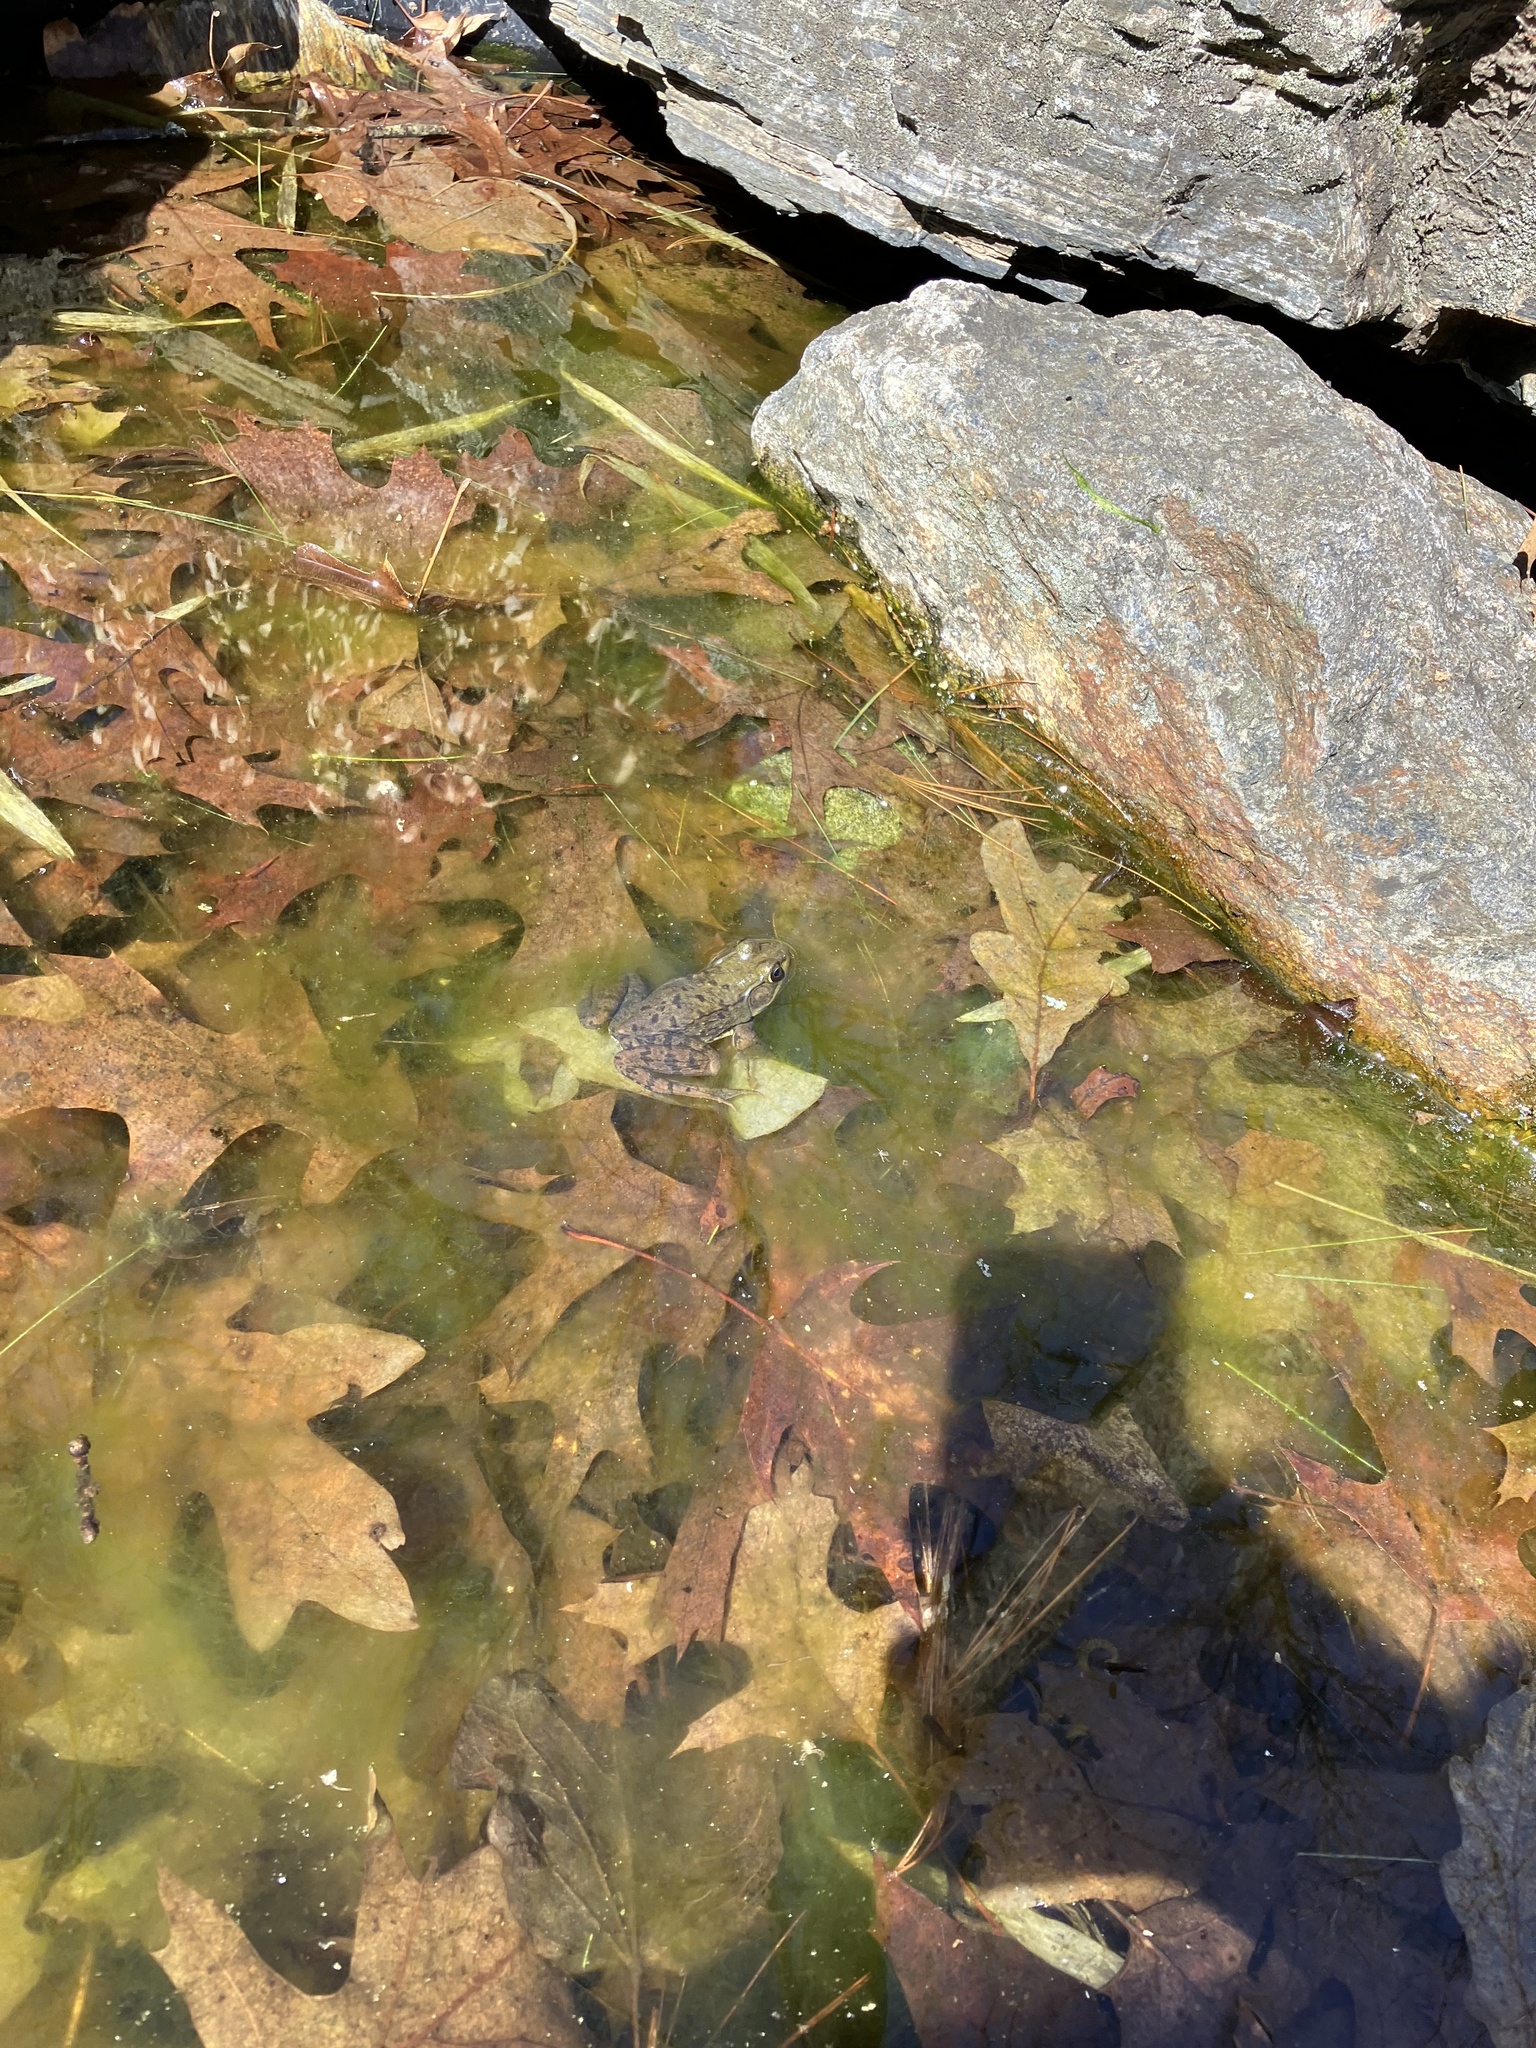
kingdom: Animalia
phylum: Chordata
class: Amphibia
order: Anura
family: Ranidae
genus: Lithobates
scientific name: Lithobates clamitans
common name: Green frog
